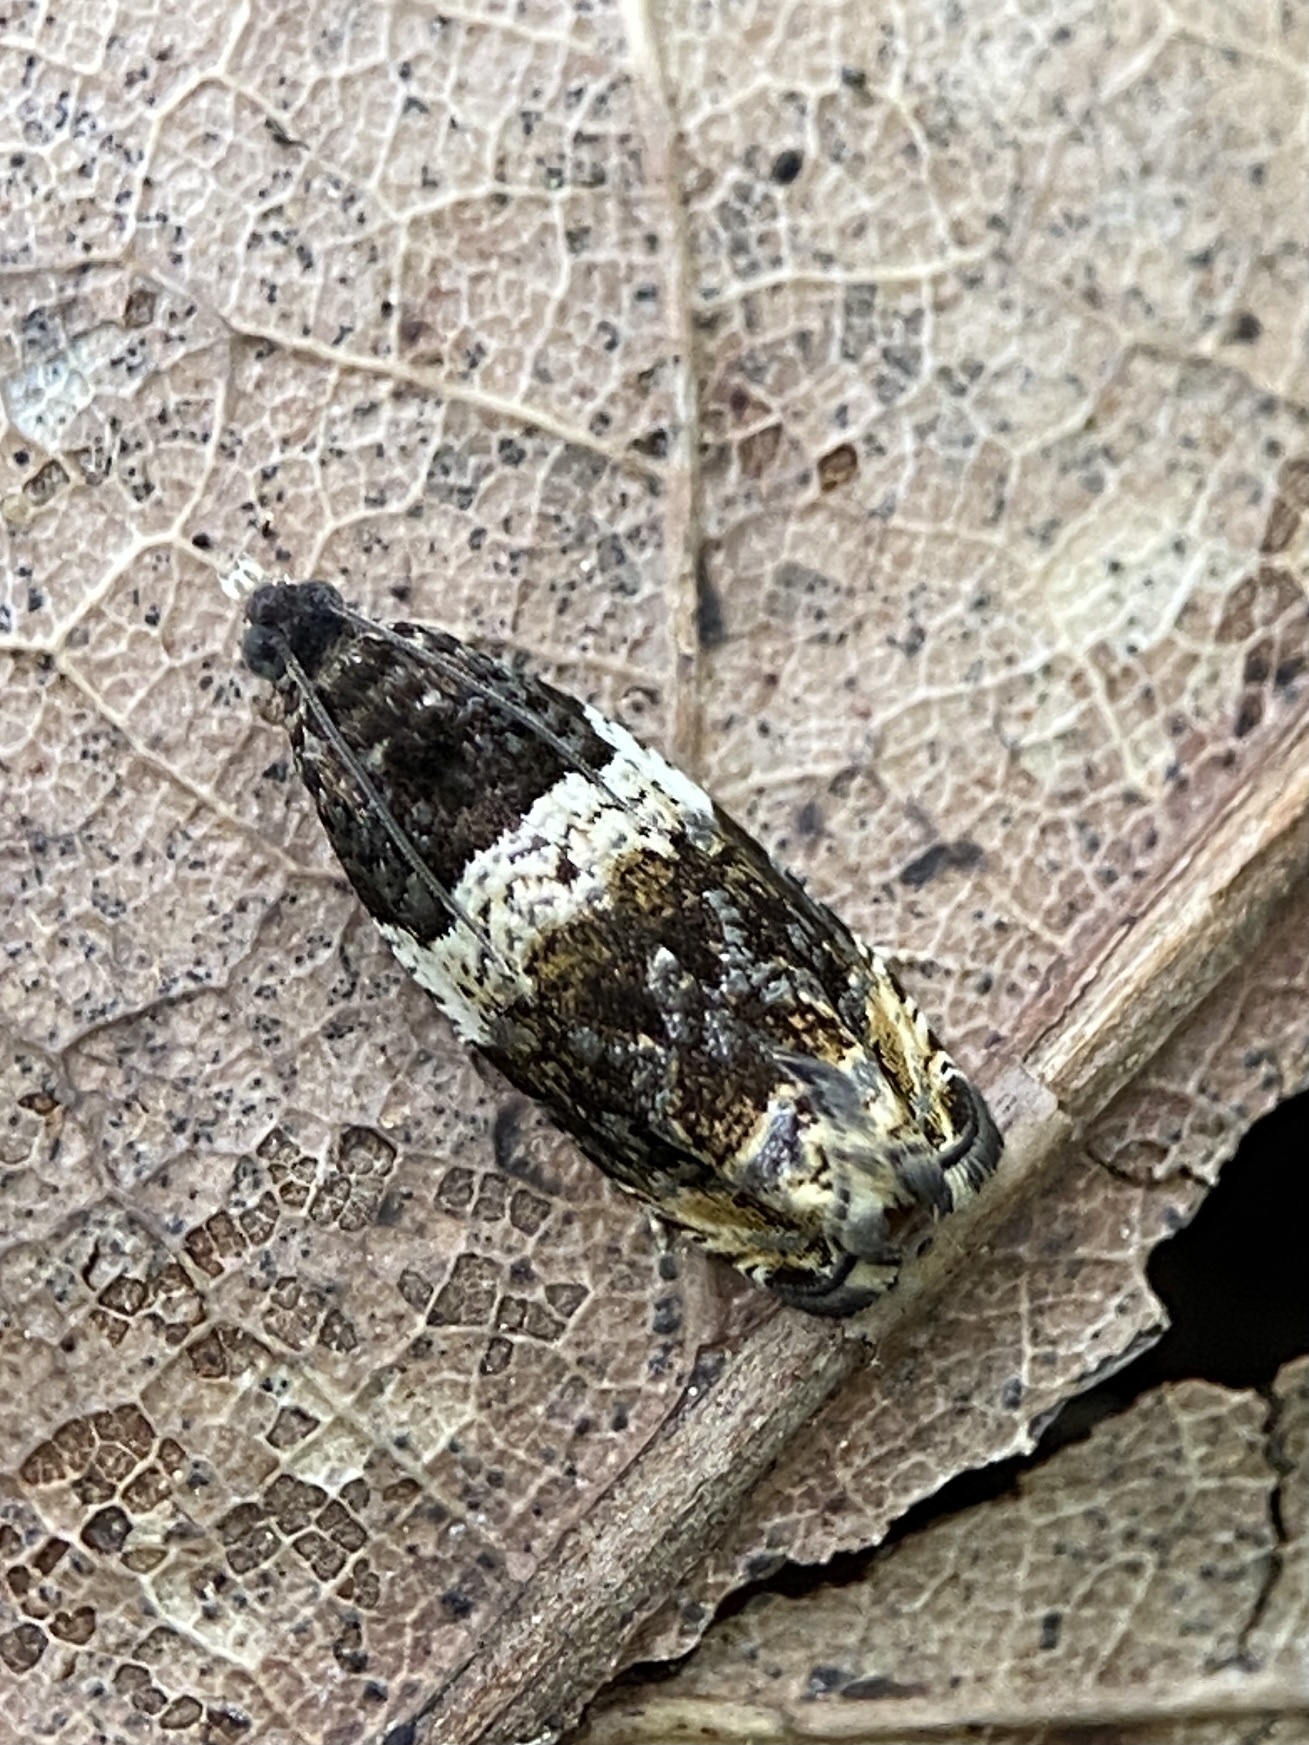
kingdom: Animalia
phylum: Arthropoda
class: Insecta
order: Lepidoptera
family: Tortricidae
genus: Olethreutes
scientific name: Olethreutes fasciatana
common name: Banded olethreutes moth
